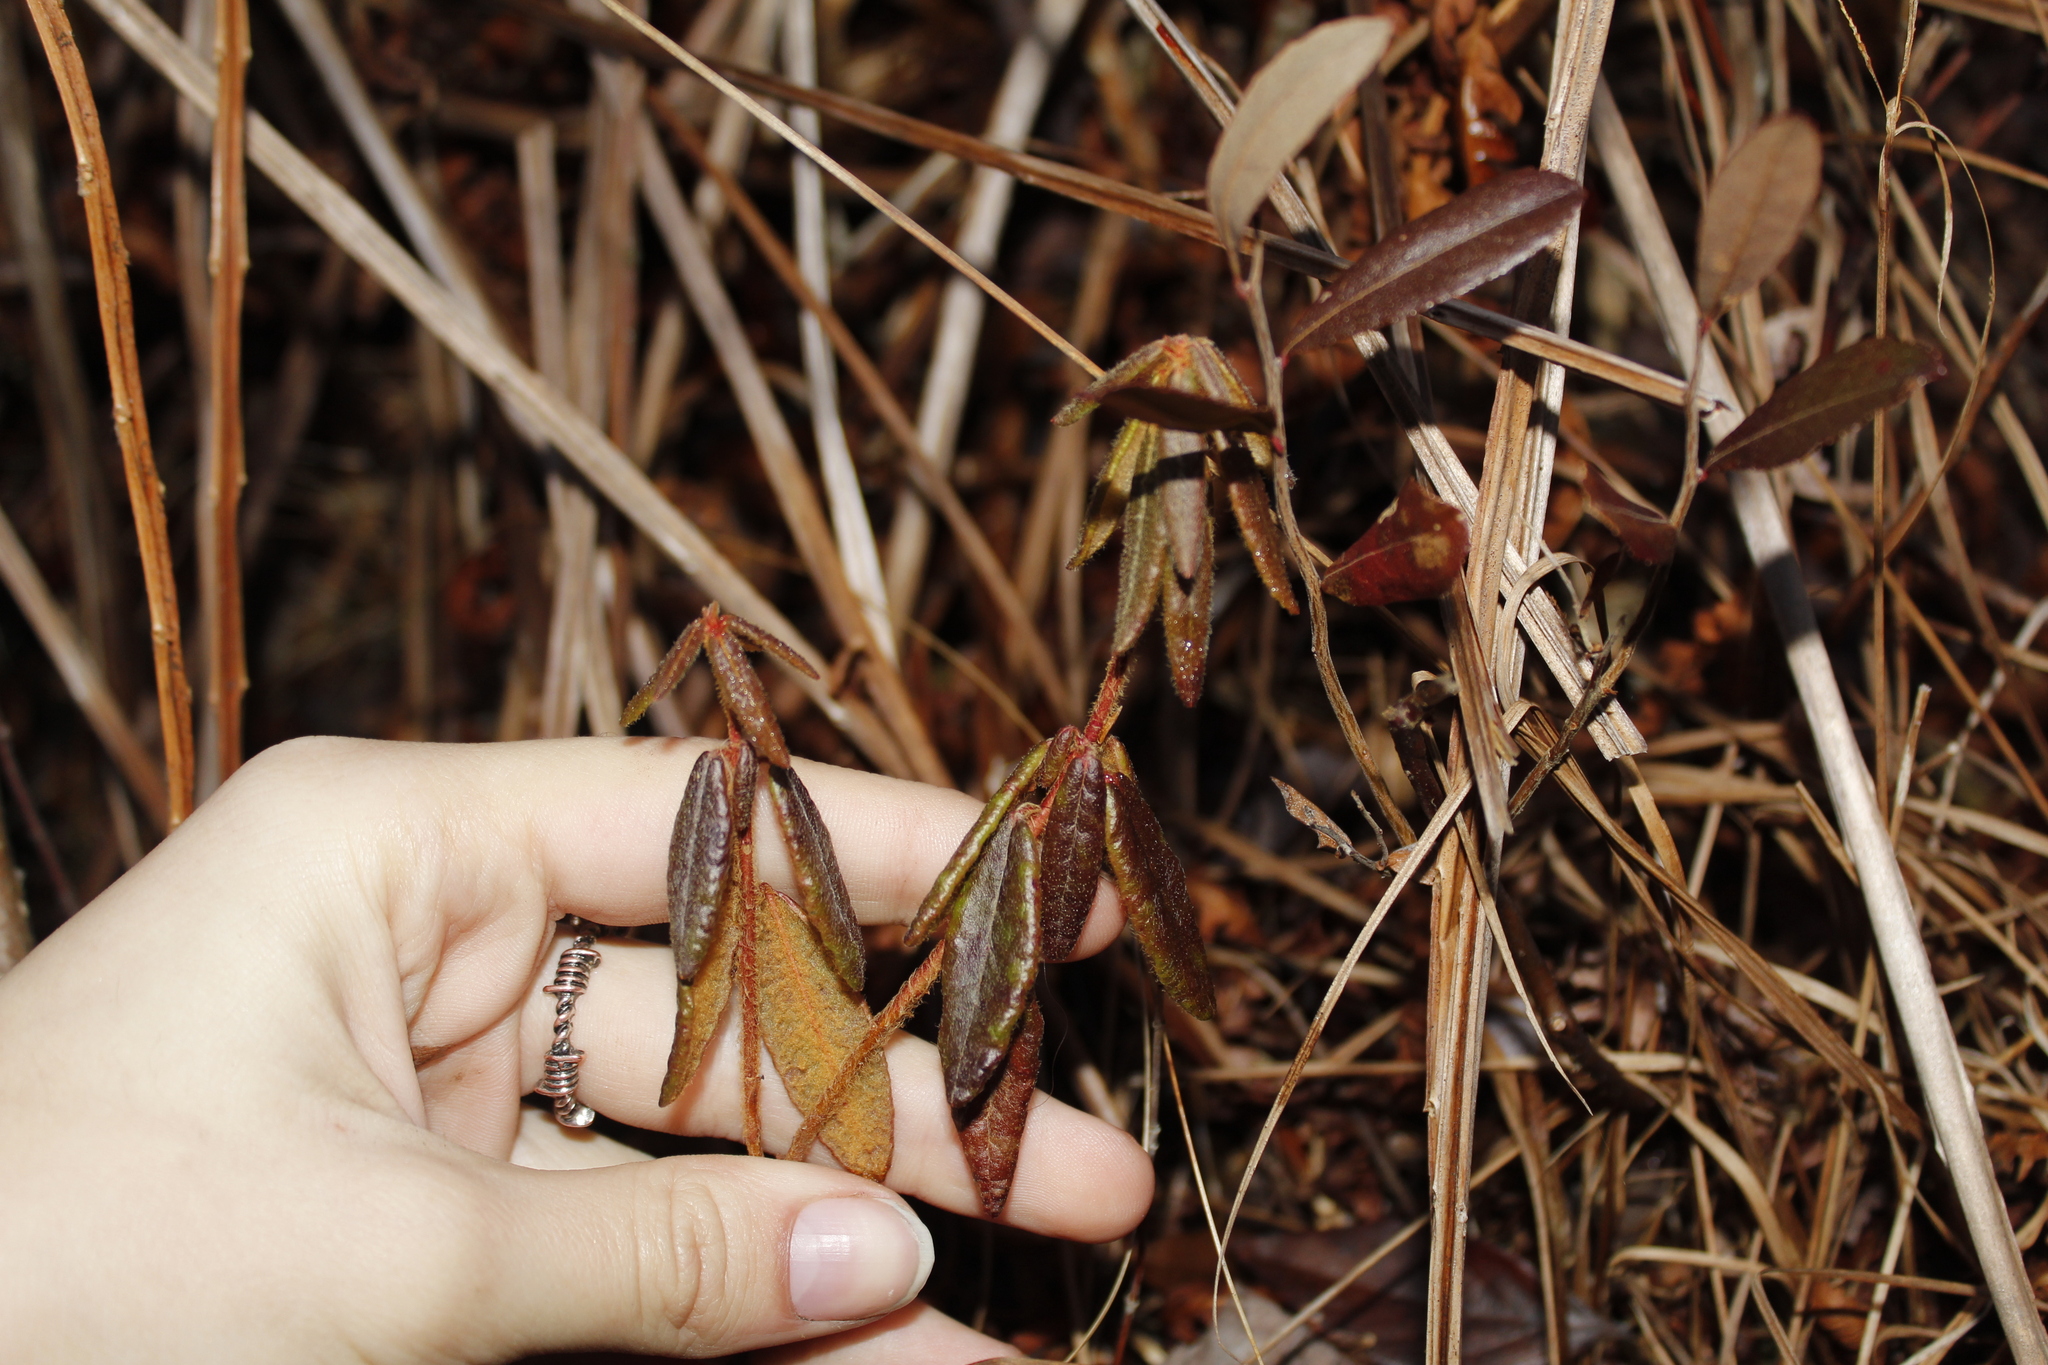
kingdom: Plantae
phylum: Tracheophyta
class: Magnoliopsida
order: Ericales
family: Ericaceae
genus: Rhododendron
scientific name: Rhododendron groenlandicum
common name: Bog labrador tea
